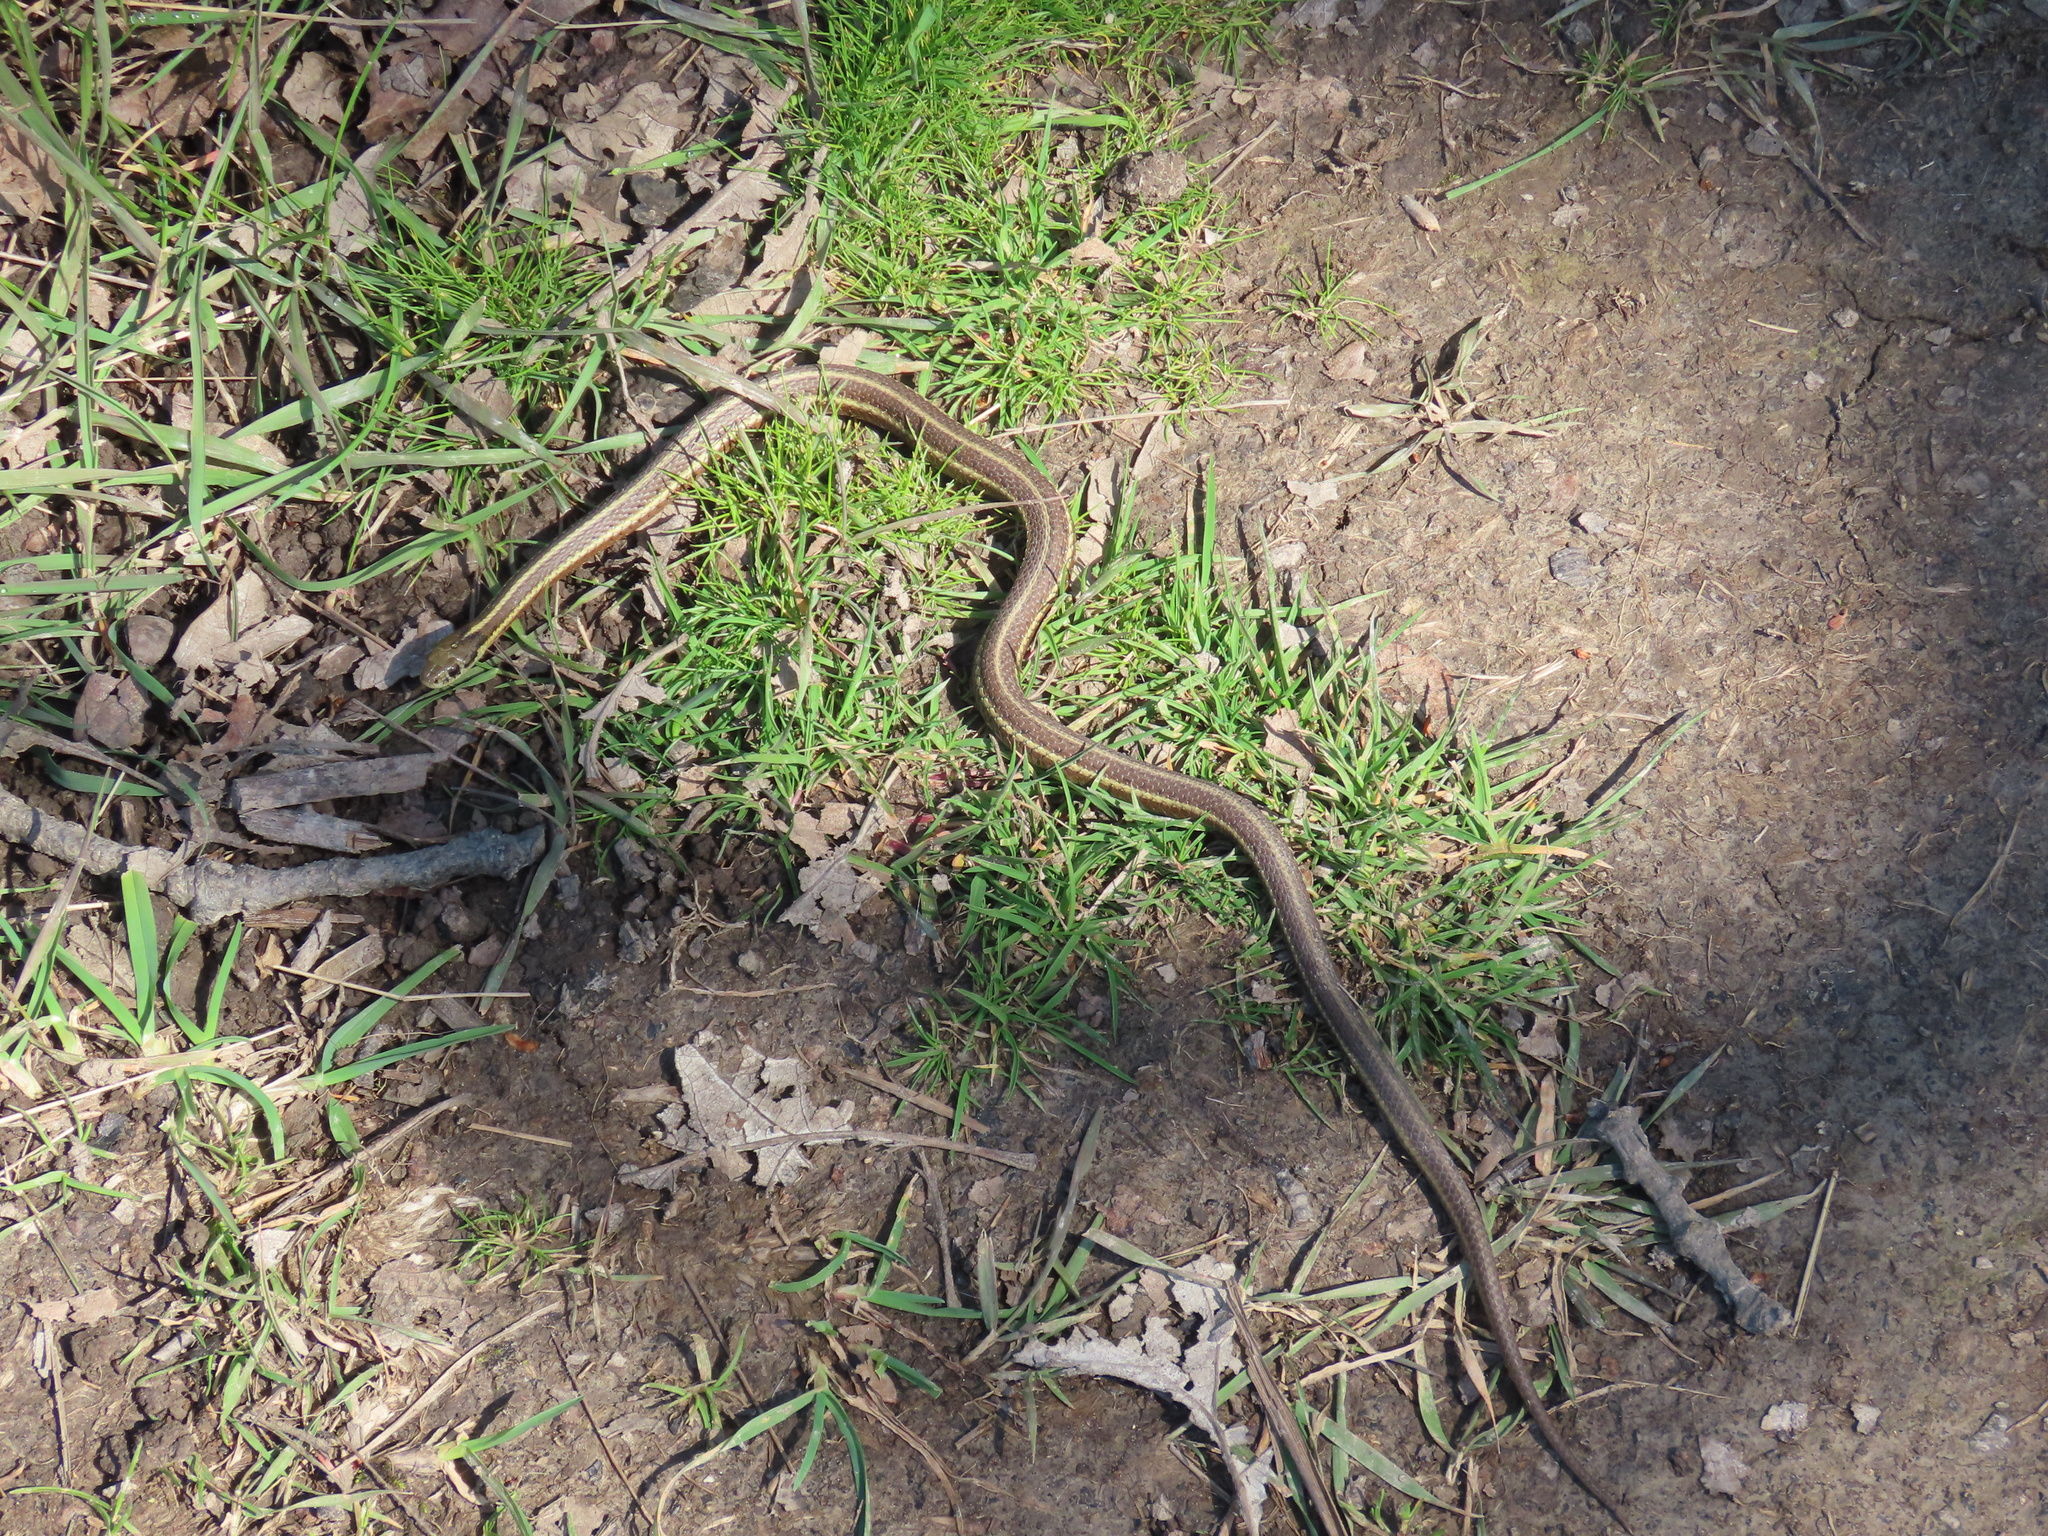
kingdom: Animalia
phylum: Chordata
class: Squamata
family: Colubridae
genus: Thamnophis
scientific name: Thamnophis ordinoides
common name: Northwestern garter snake
